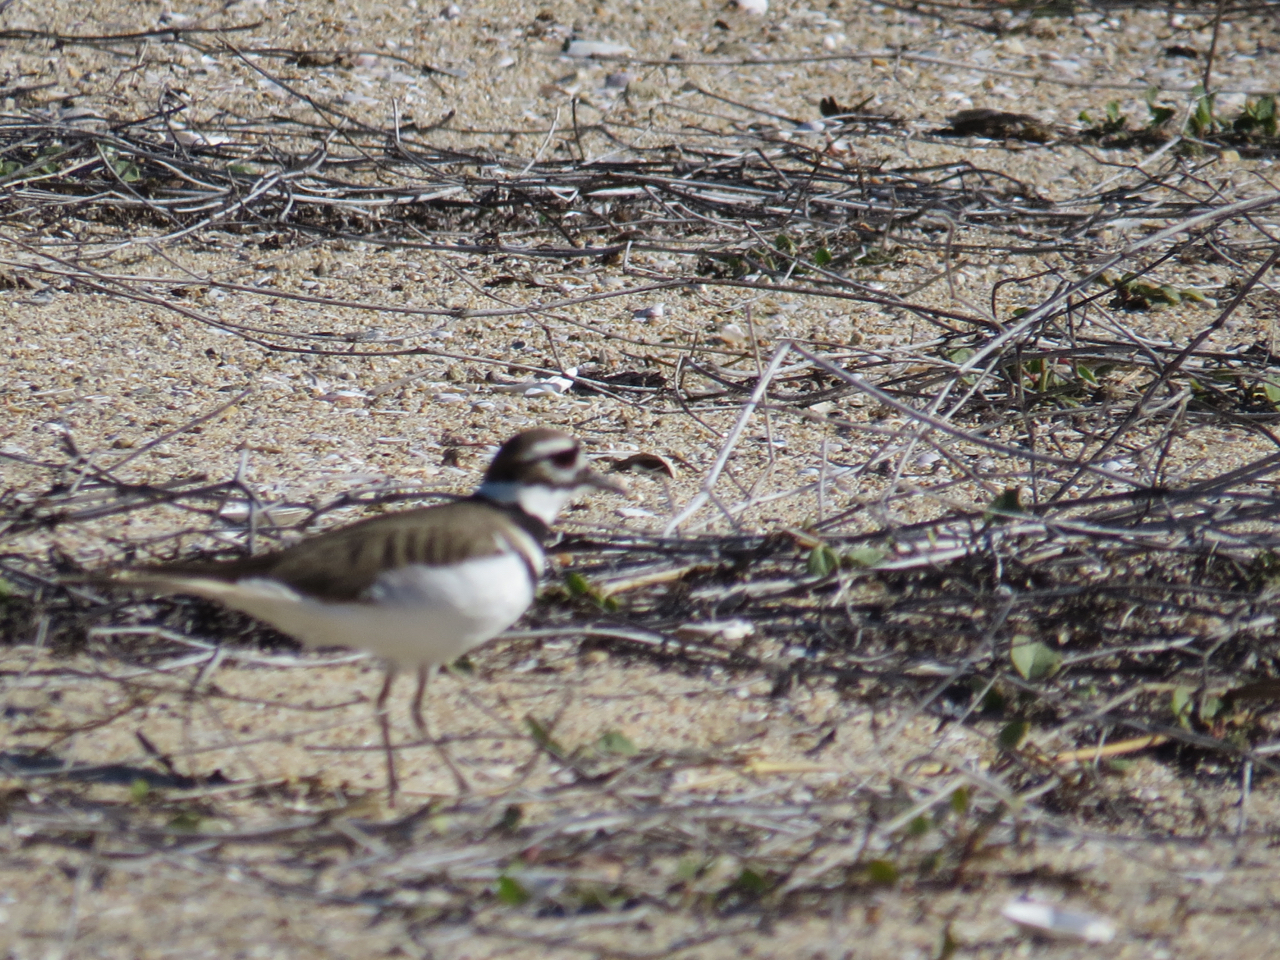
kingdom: Animalia
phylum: Chordata
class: Aves
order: Charadriiformes
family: Charadriidae
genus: Charadrius
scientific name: Charadrius vociferus
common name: Killdeer
